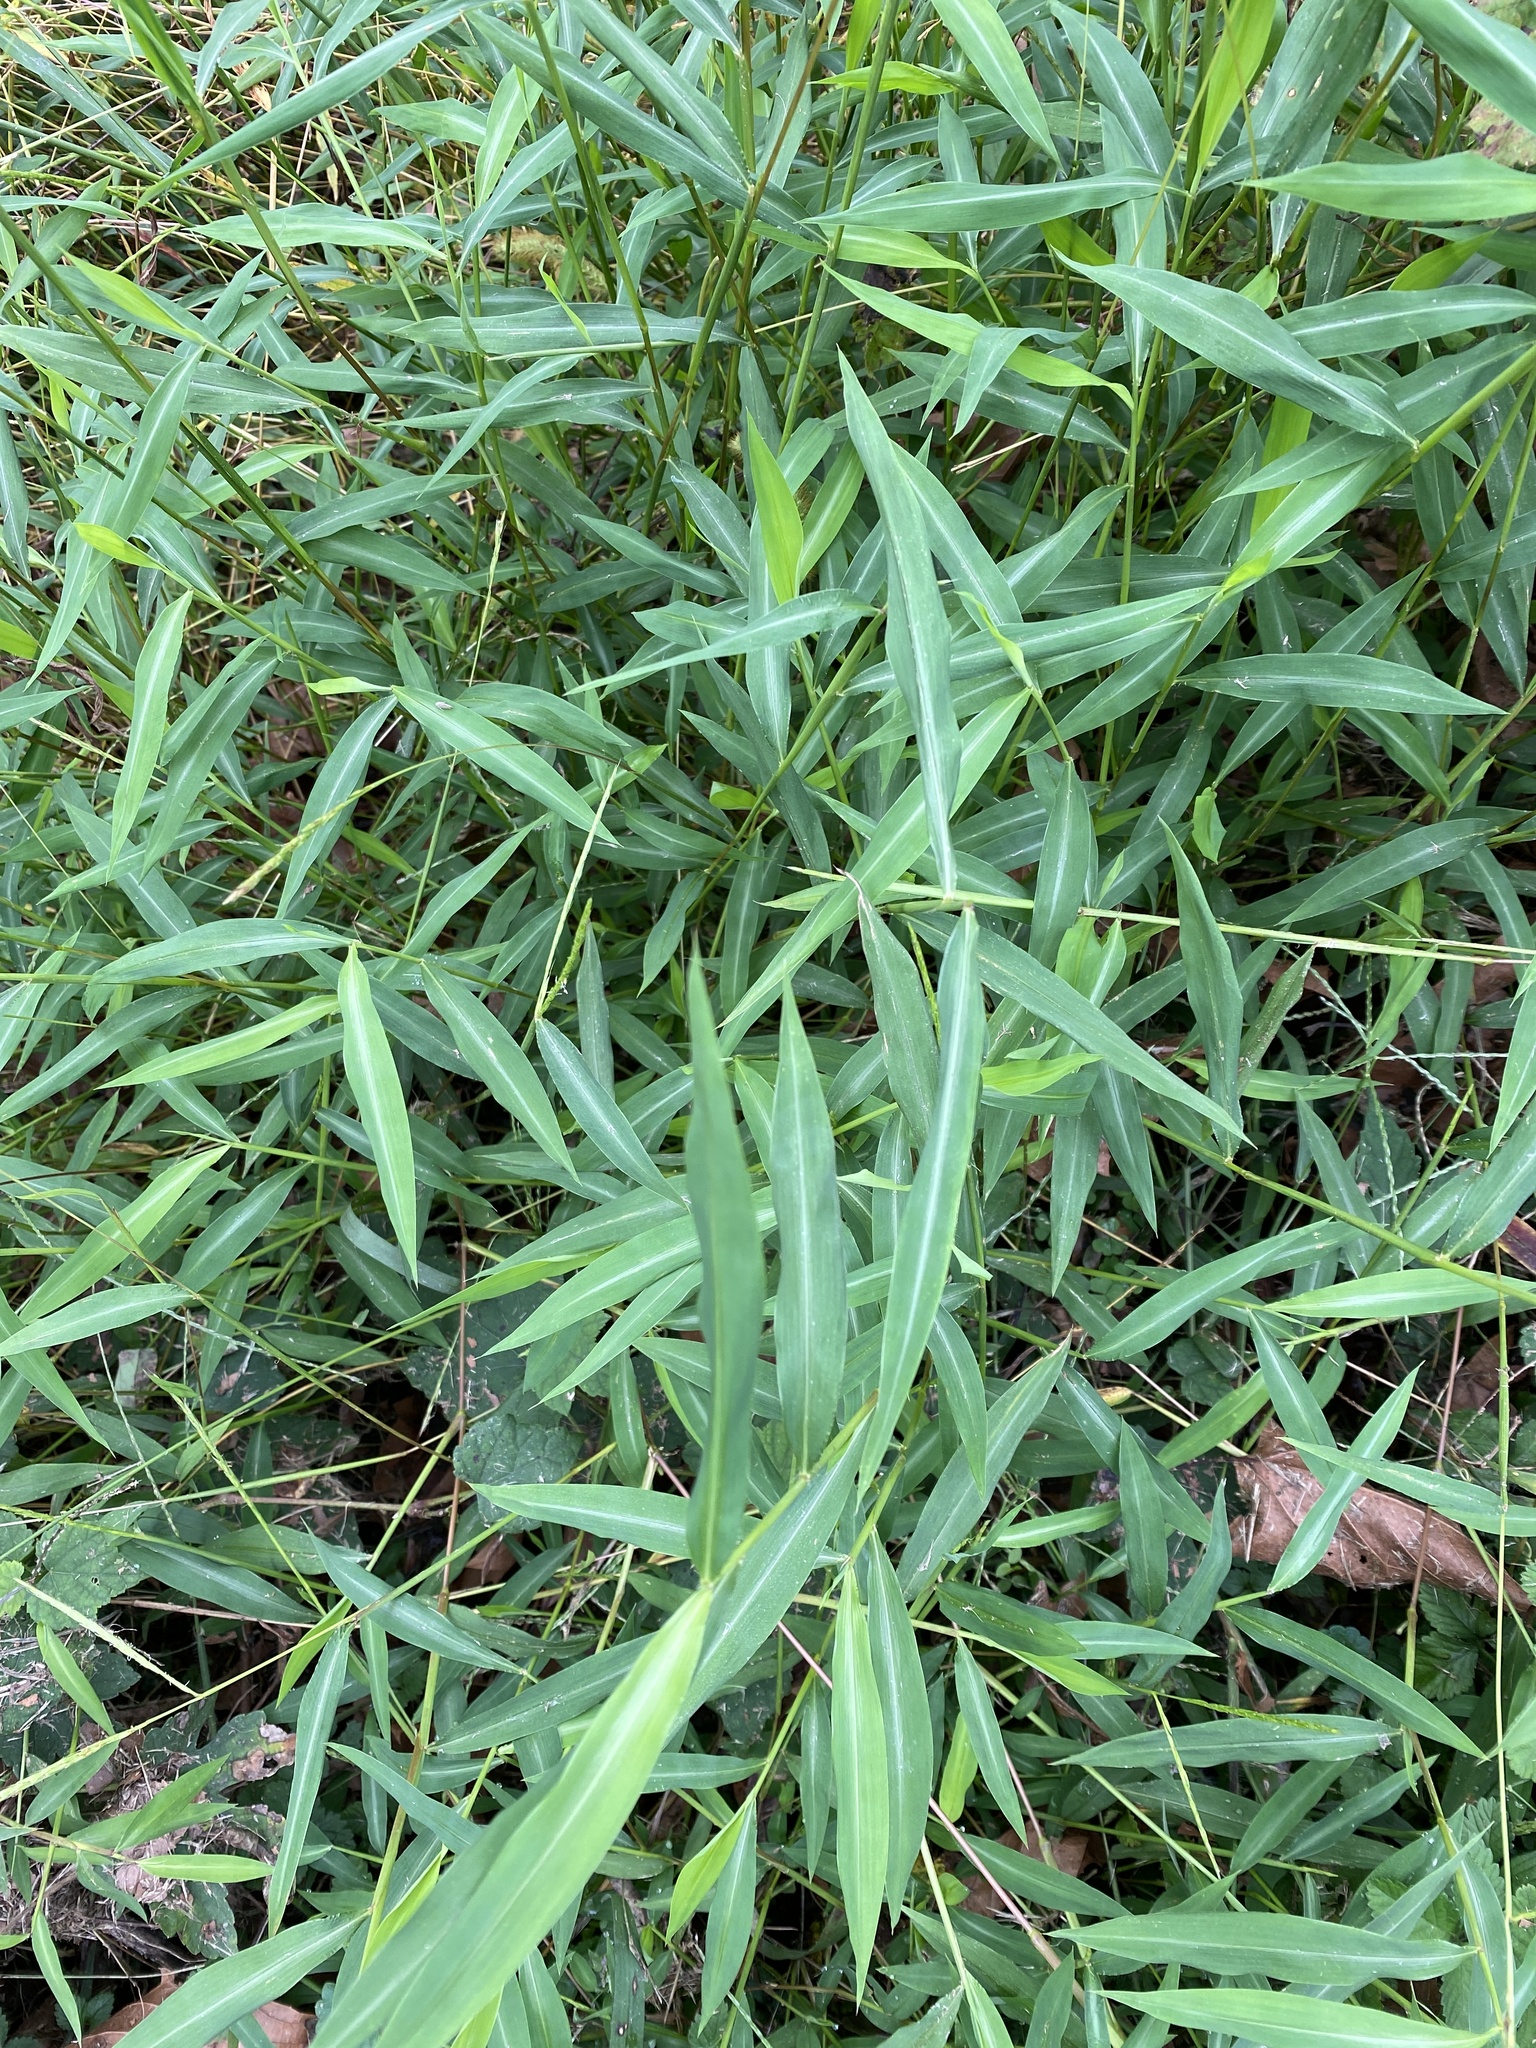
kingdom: Plantae
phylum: Tracheophyta
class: Liliopsida
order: Poales
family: Poaceae
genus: Microstegium
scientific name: Microstegium vimineum
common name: Japanese stiltgrass
